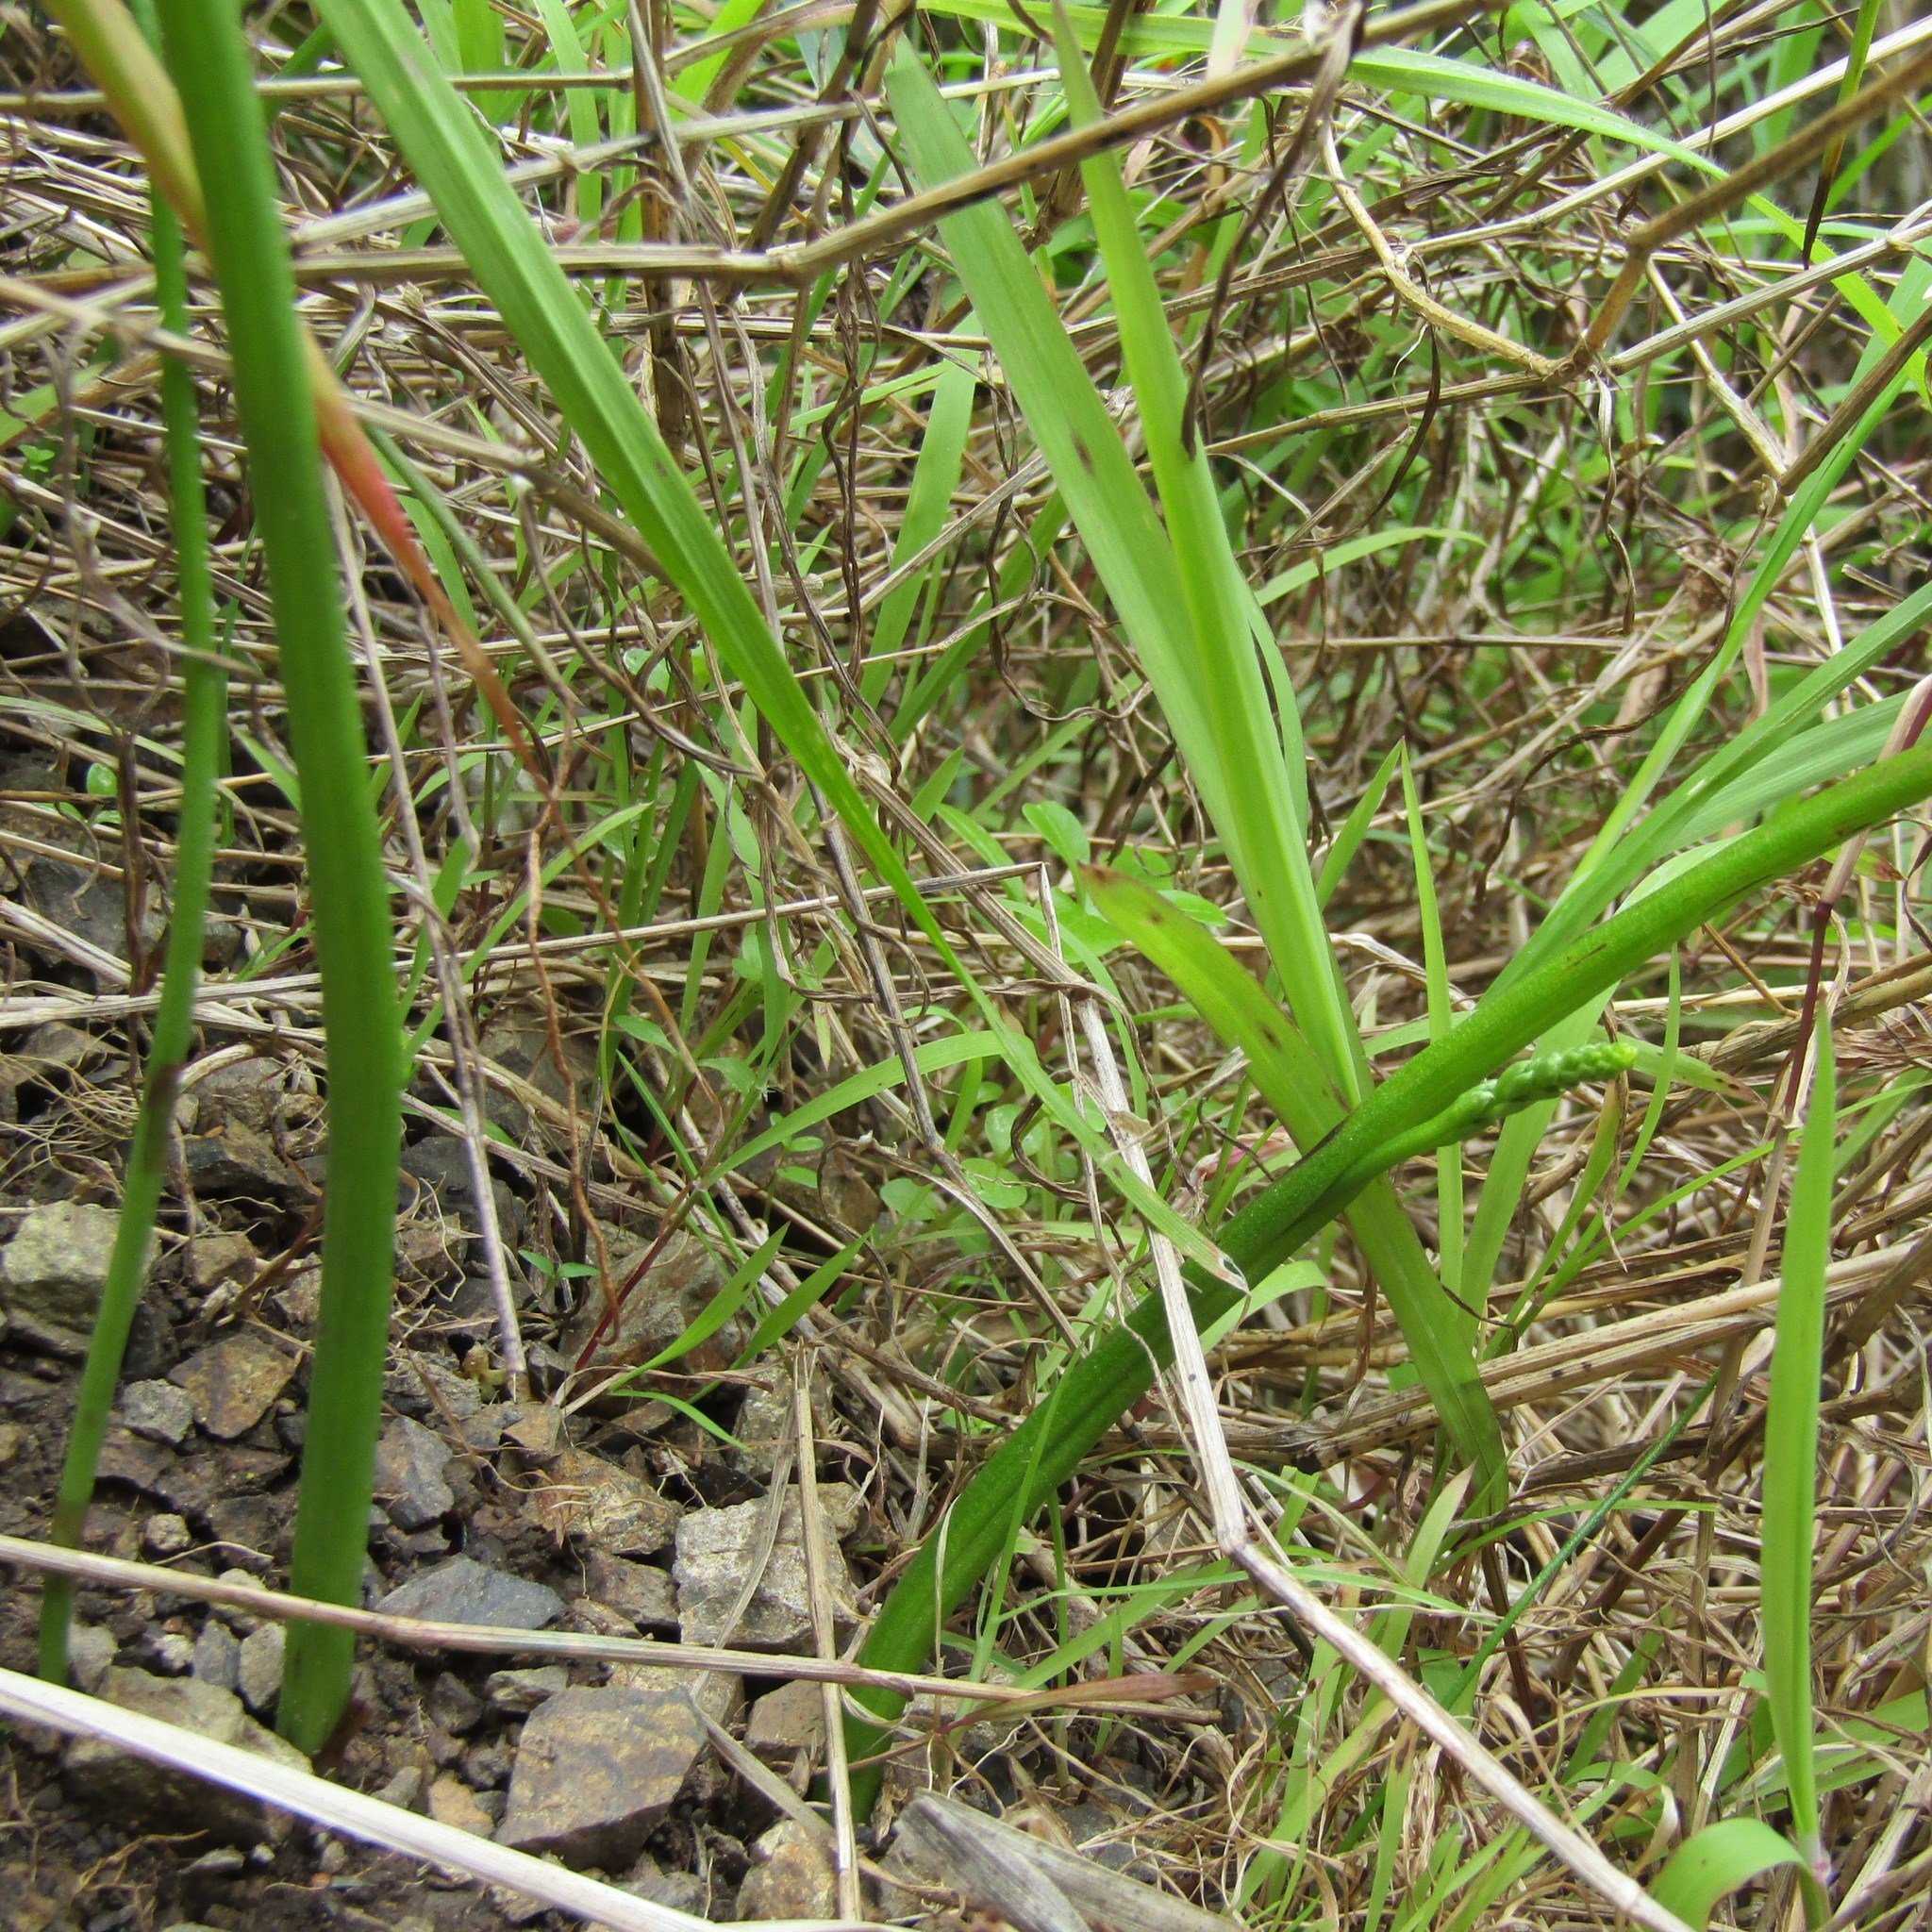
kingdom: Plantae
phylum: Tracheophyta
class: Liliopsida
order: Asparagales
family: Orchidaceae
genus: Microtis
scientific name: Microtis unifolia
